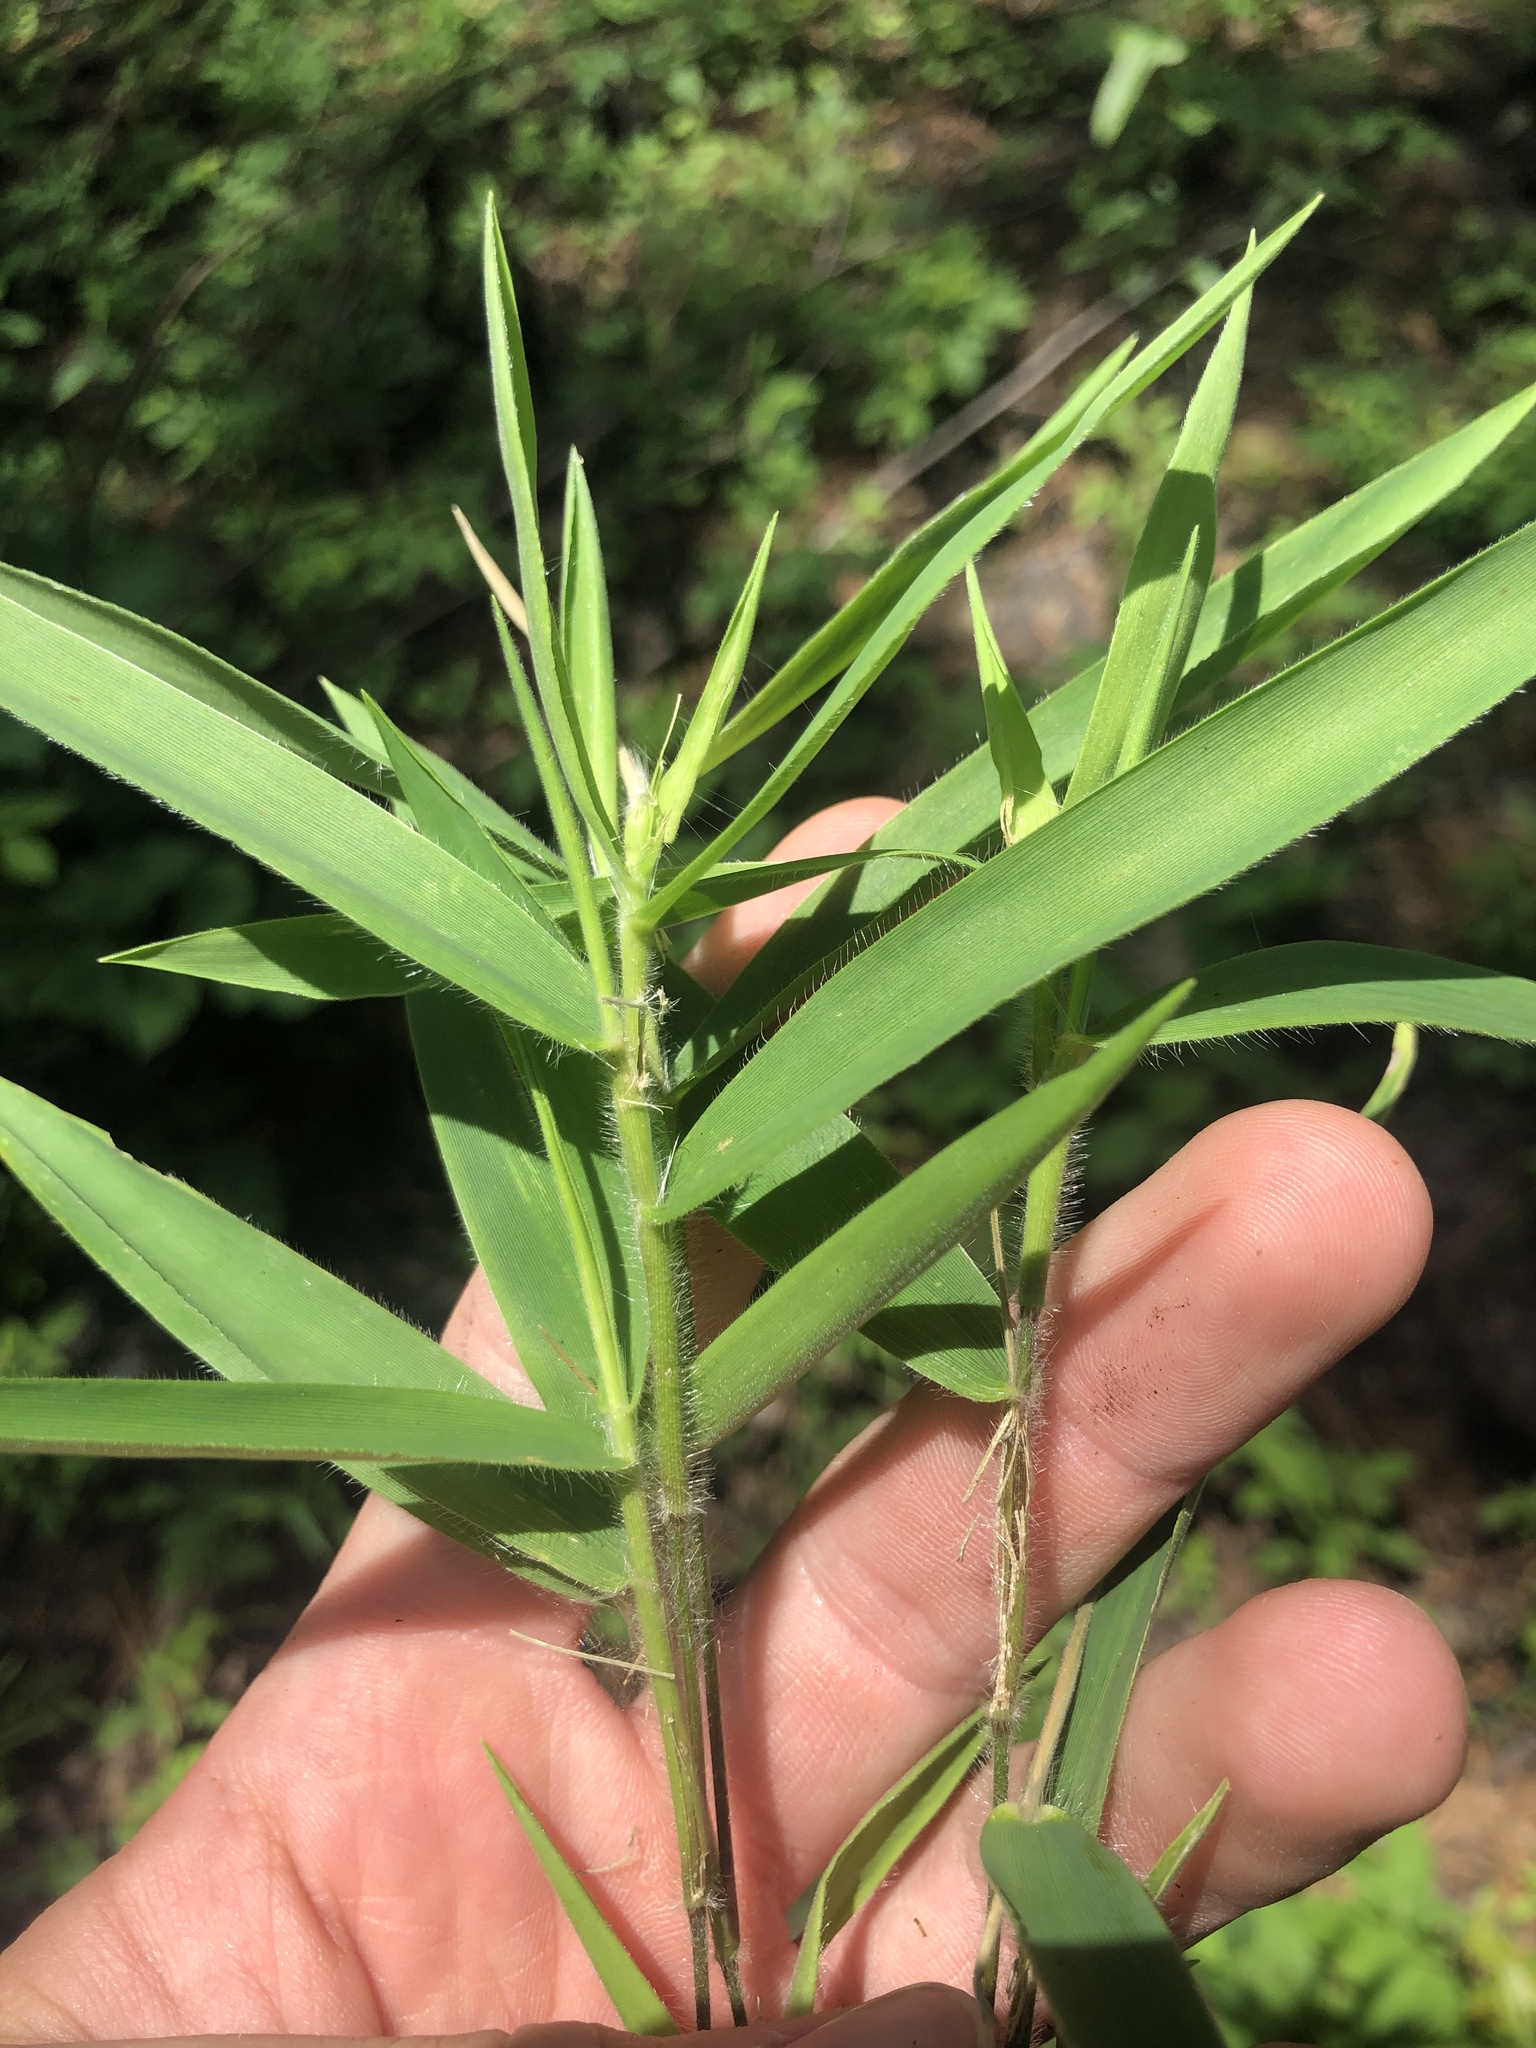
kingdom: Plantae
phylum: Tracheophyta
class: Liliopsida
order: Poales
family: Poaceae
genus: Dichanthelium
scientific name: Dichanthelium scribnerianum
